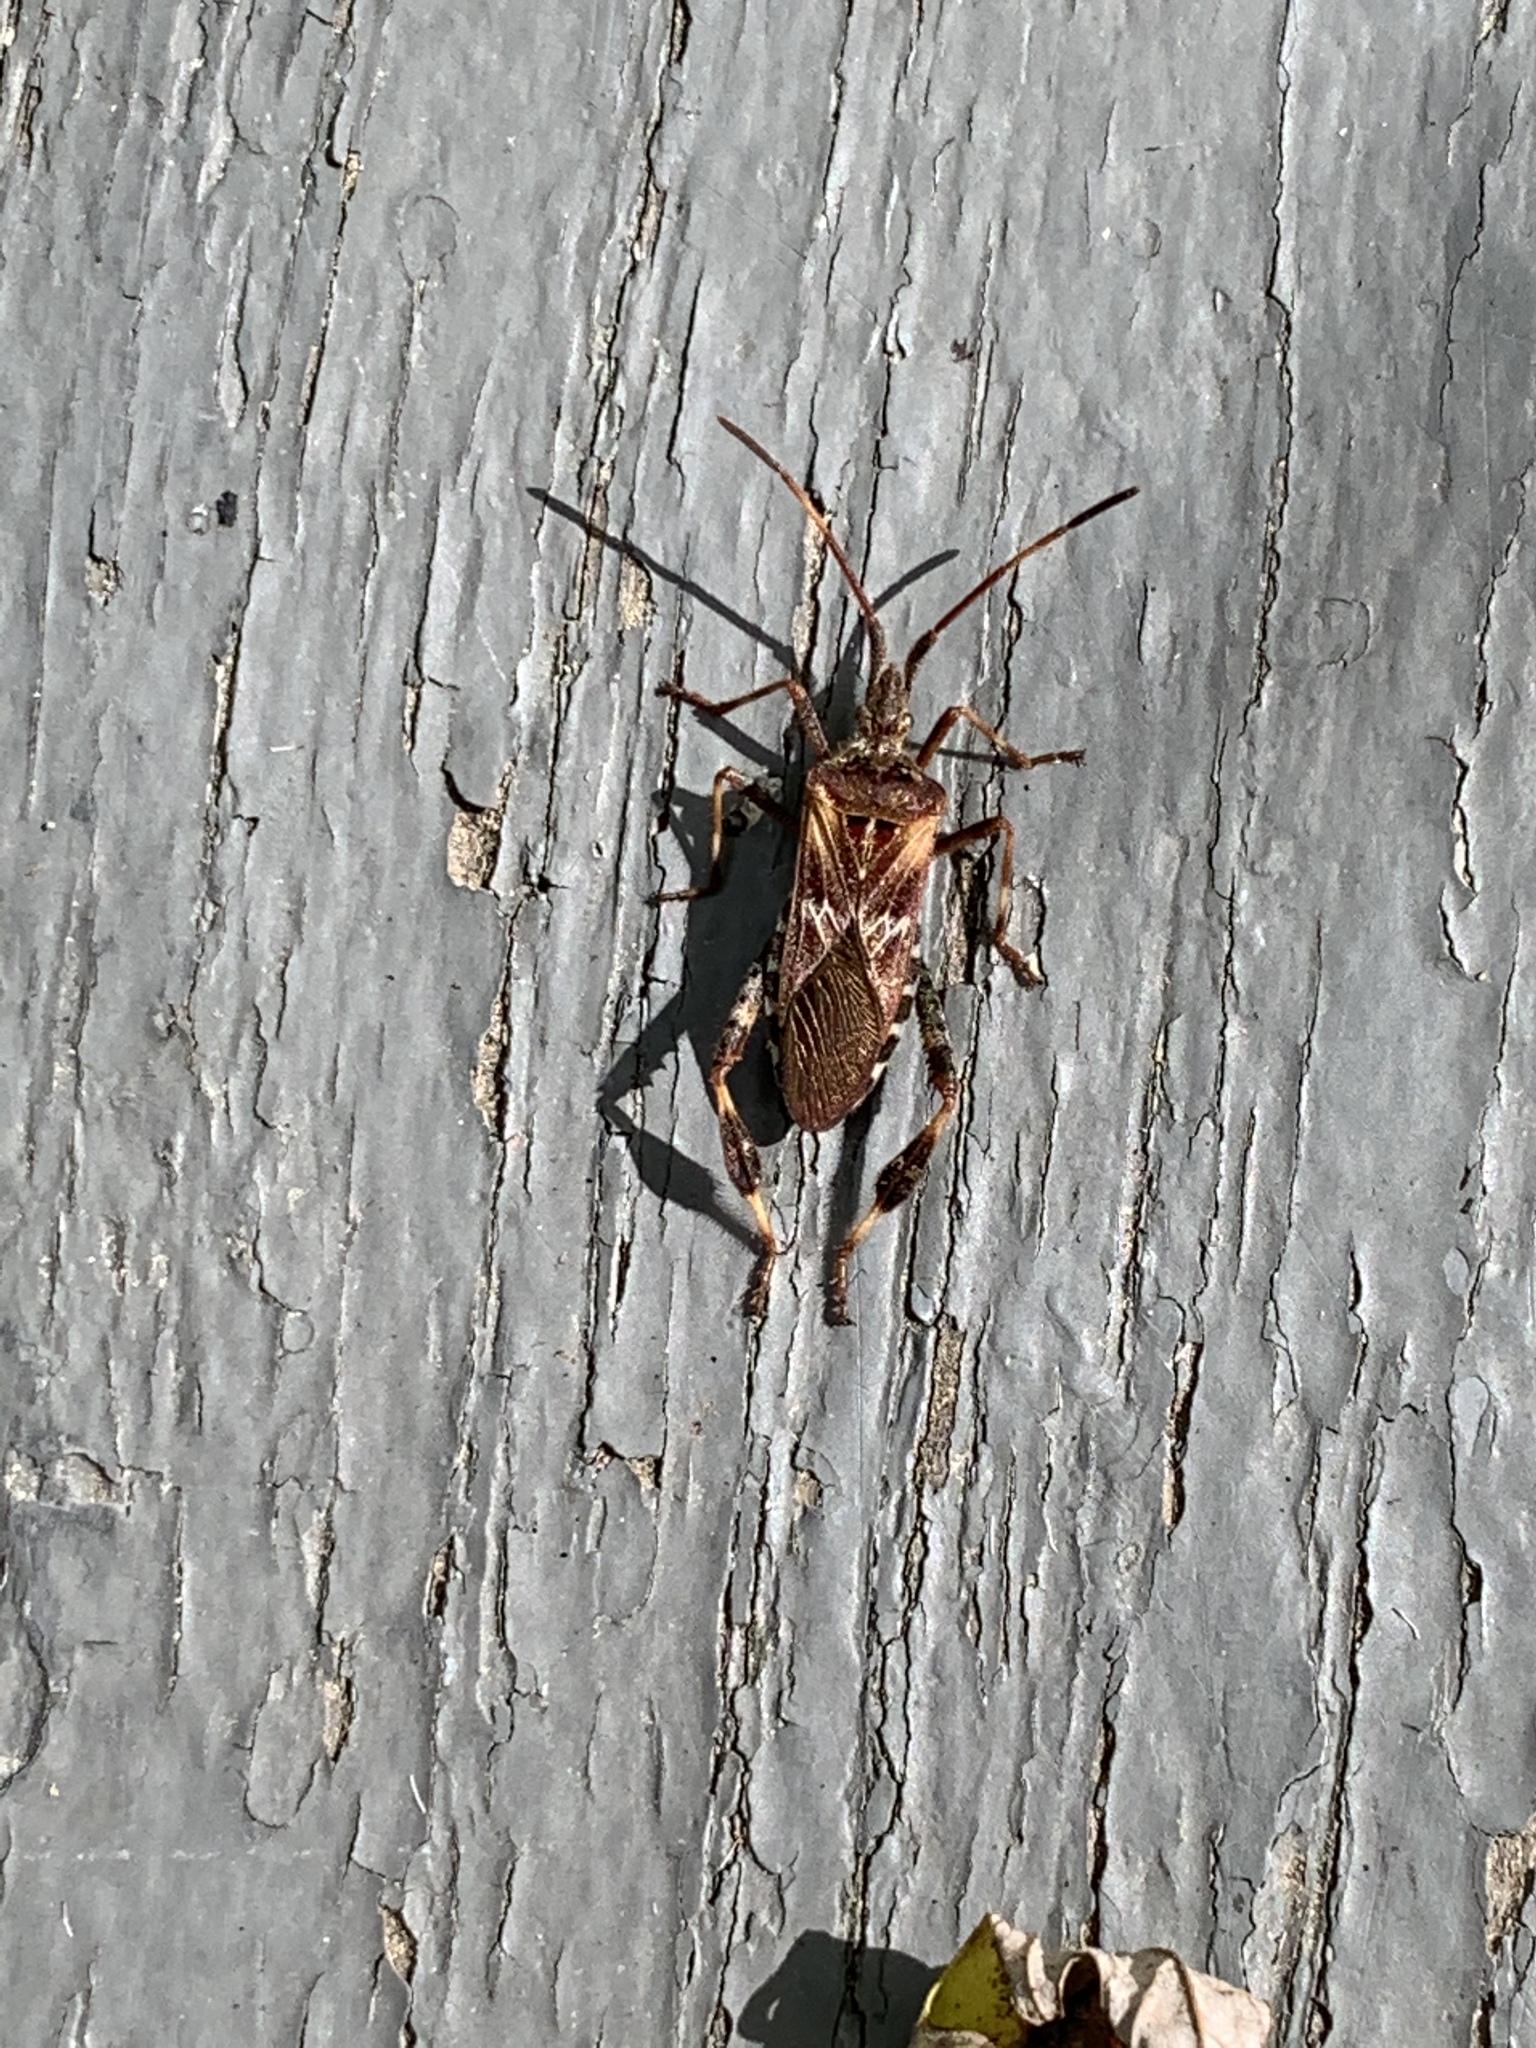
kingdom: Animalia
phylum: Arthropoda
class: Insecta
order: Hemiptera
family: Coreidae
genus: Leptoglossus
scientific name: Leptoglossus occidentalis
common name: Western conifer-seed bug
